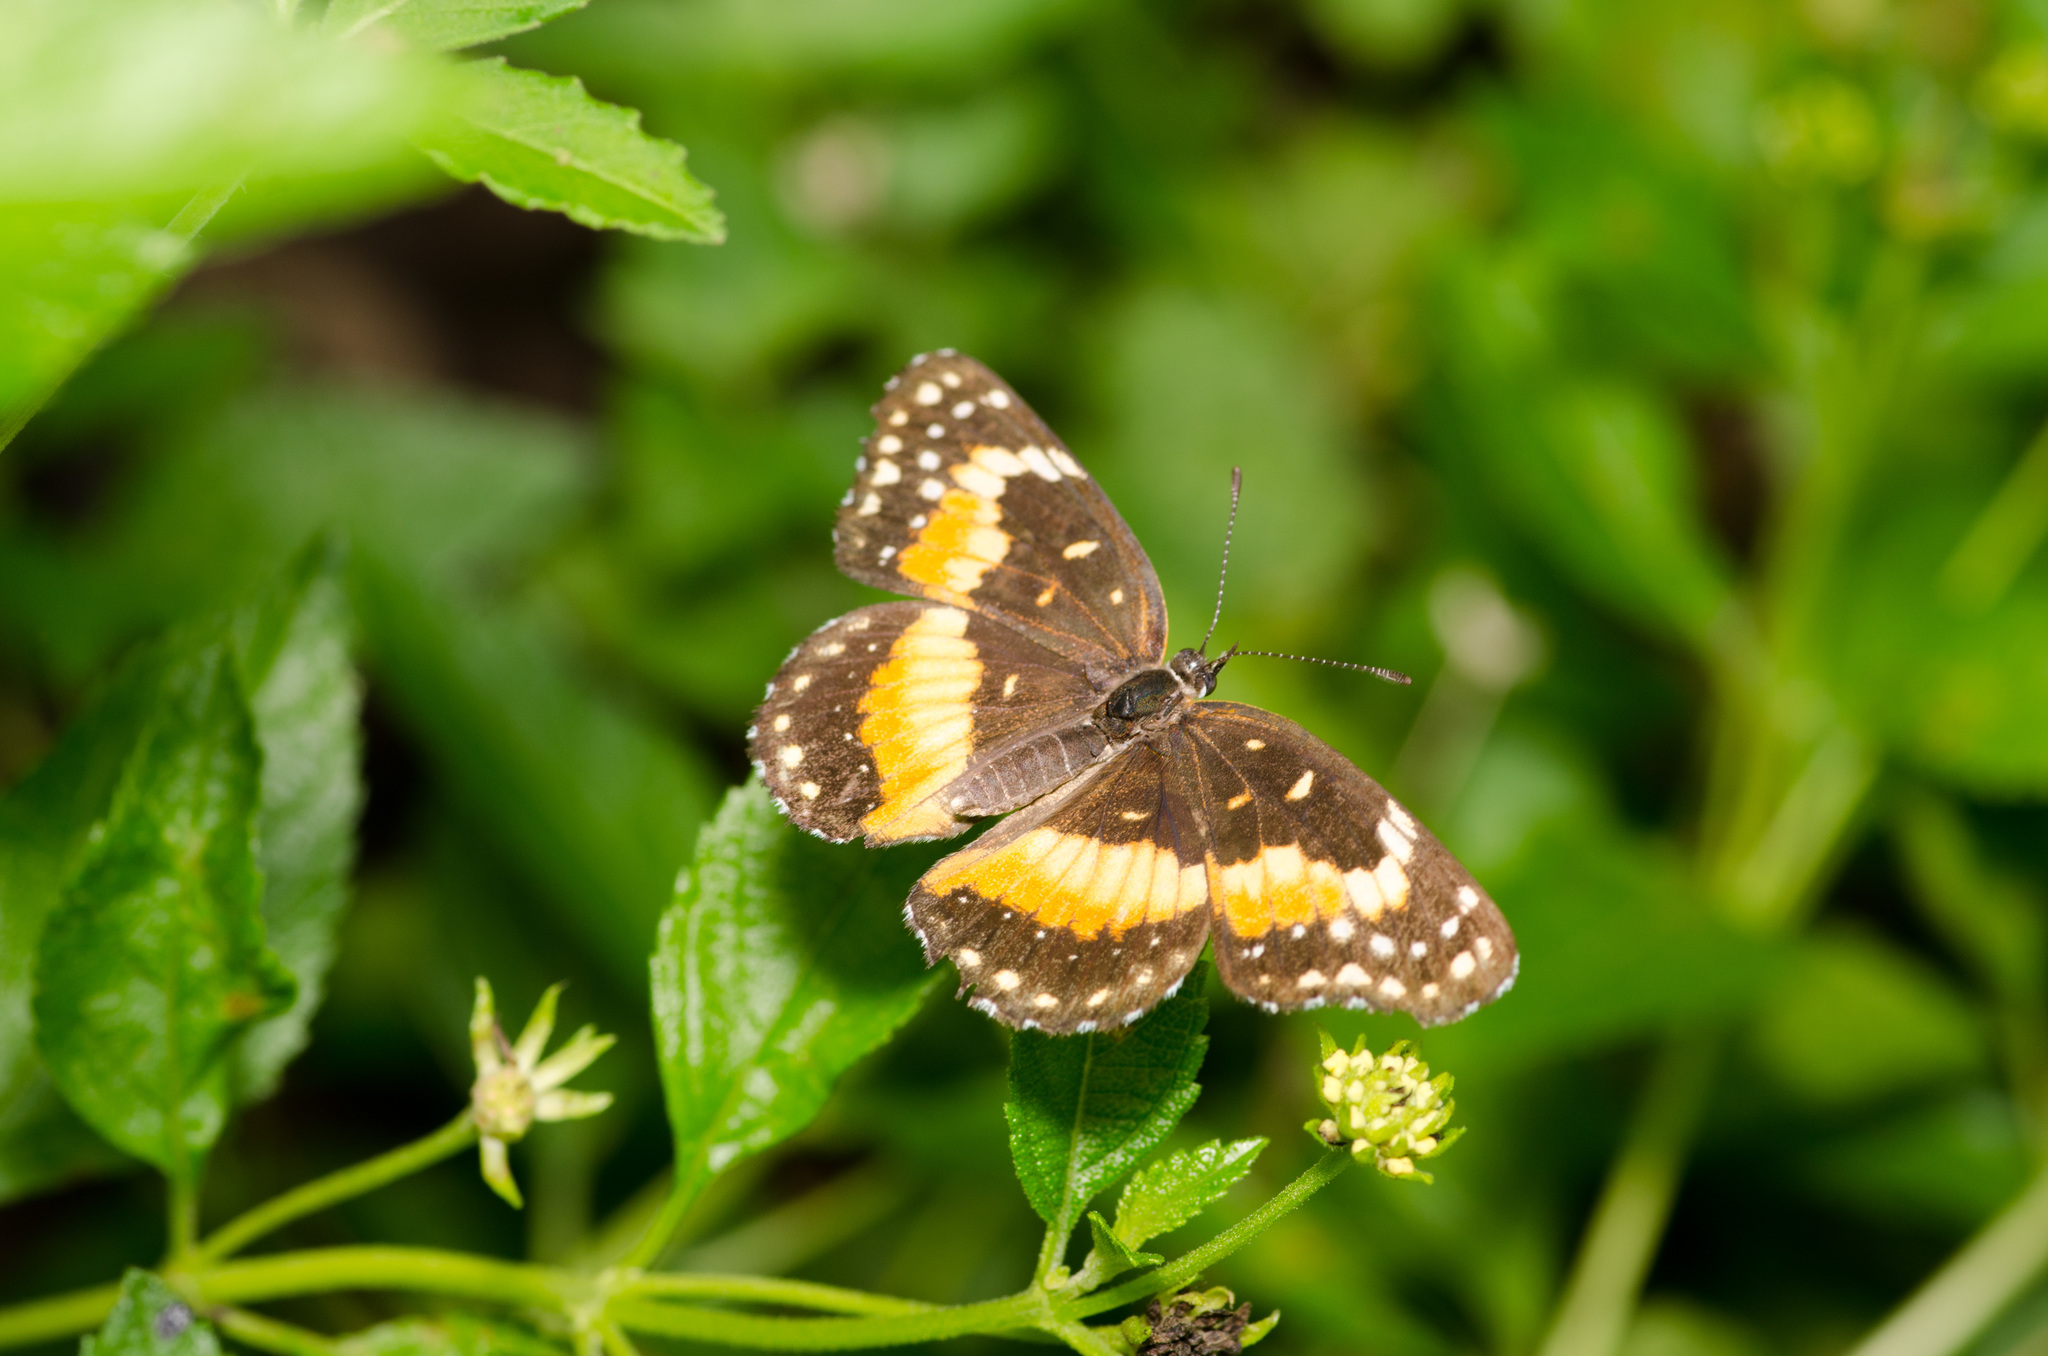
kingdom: Animalia
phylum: Arthropoda
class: Insecta
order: Lepidoptera
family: Nymphalidae
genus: Chlosyne
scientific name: Chlosyne lacinia
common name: Bordered patch
